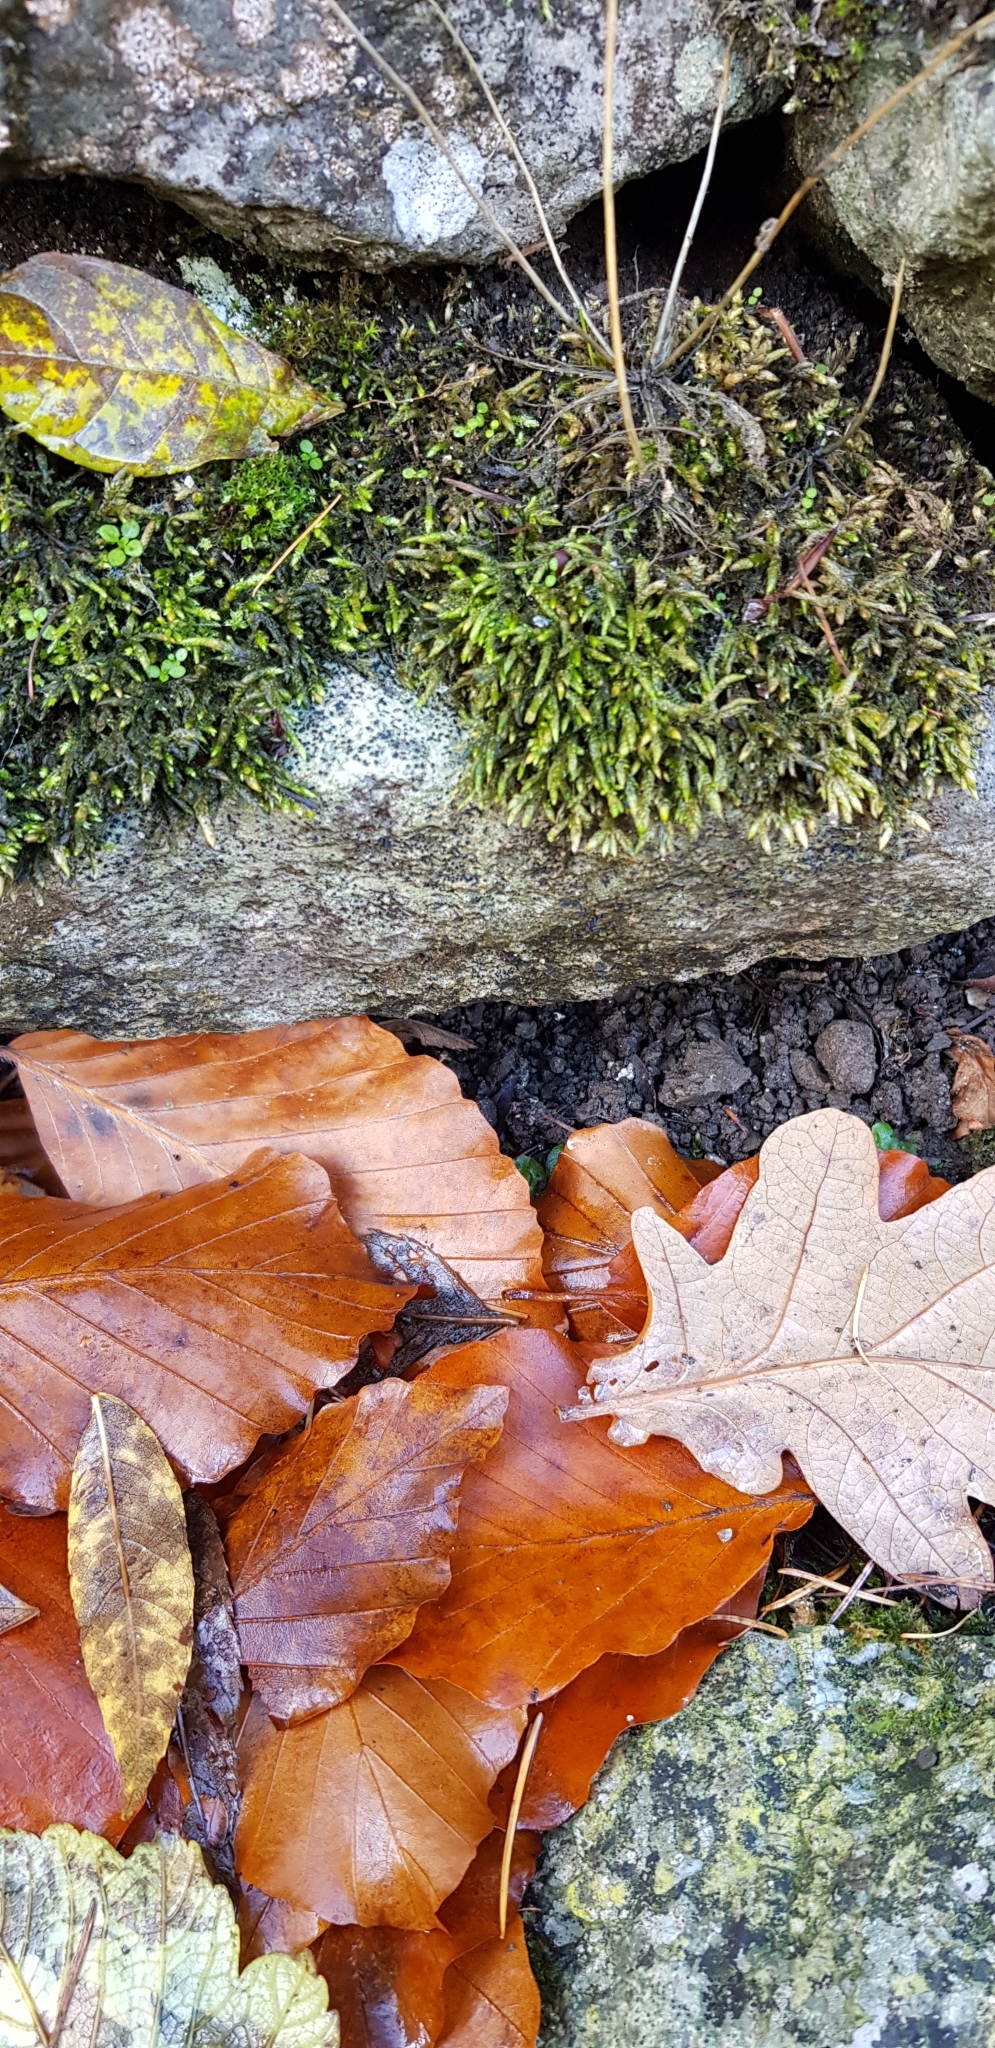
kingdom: Plantae
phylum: Bryophyta
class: Bryopsida
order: Hypnales
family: Brachytheciaceae
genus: Cirriphyllum
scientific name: Cirriphyllum crassinervium
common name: Beech feather-moss
